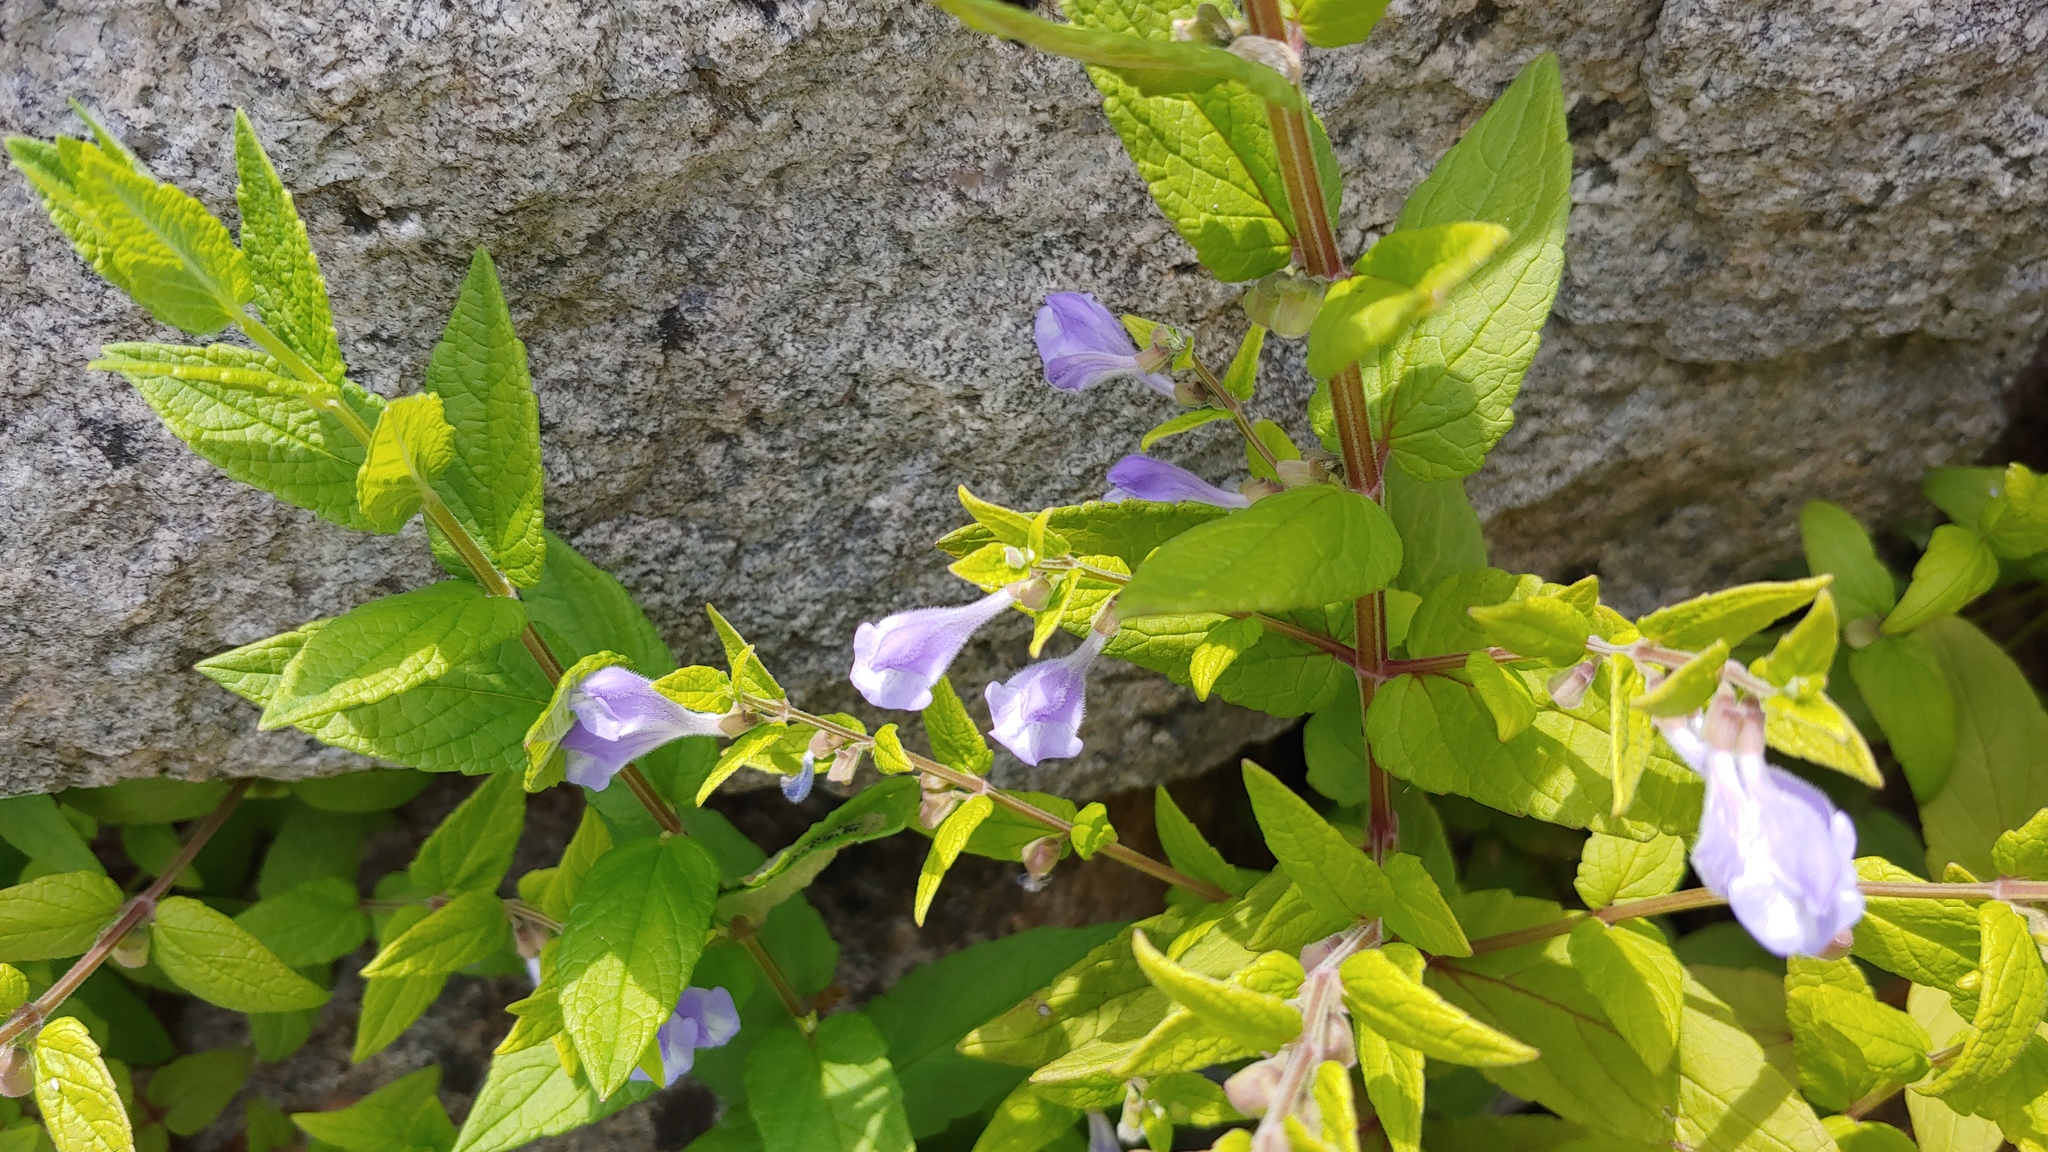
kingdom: Plantae
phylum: Tracheophyta
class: Magnoliopsida
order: Lamiales
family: Lamiaceae
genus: Scutellaria
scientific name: Scutellaria galericulata
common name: Skullcap
